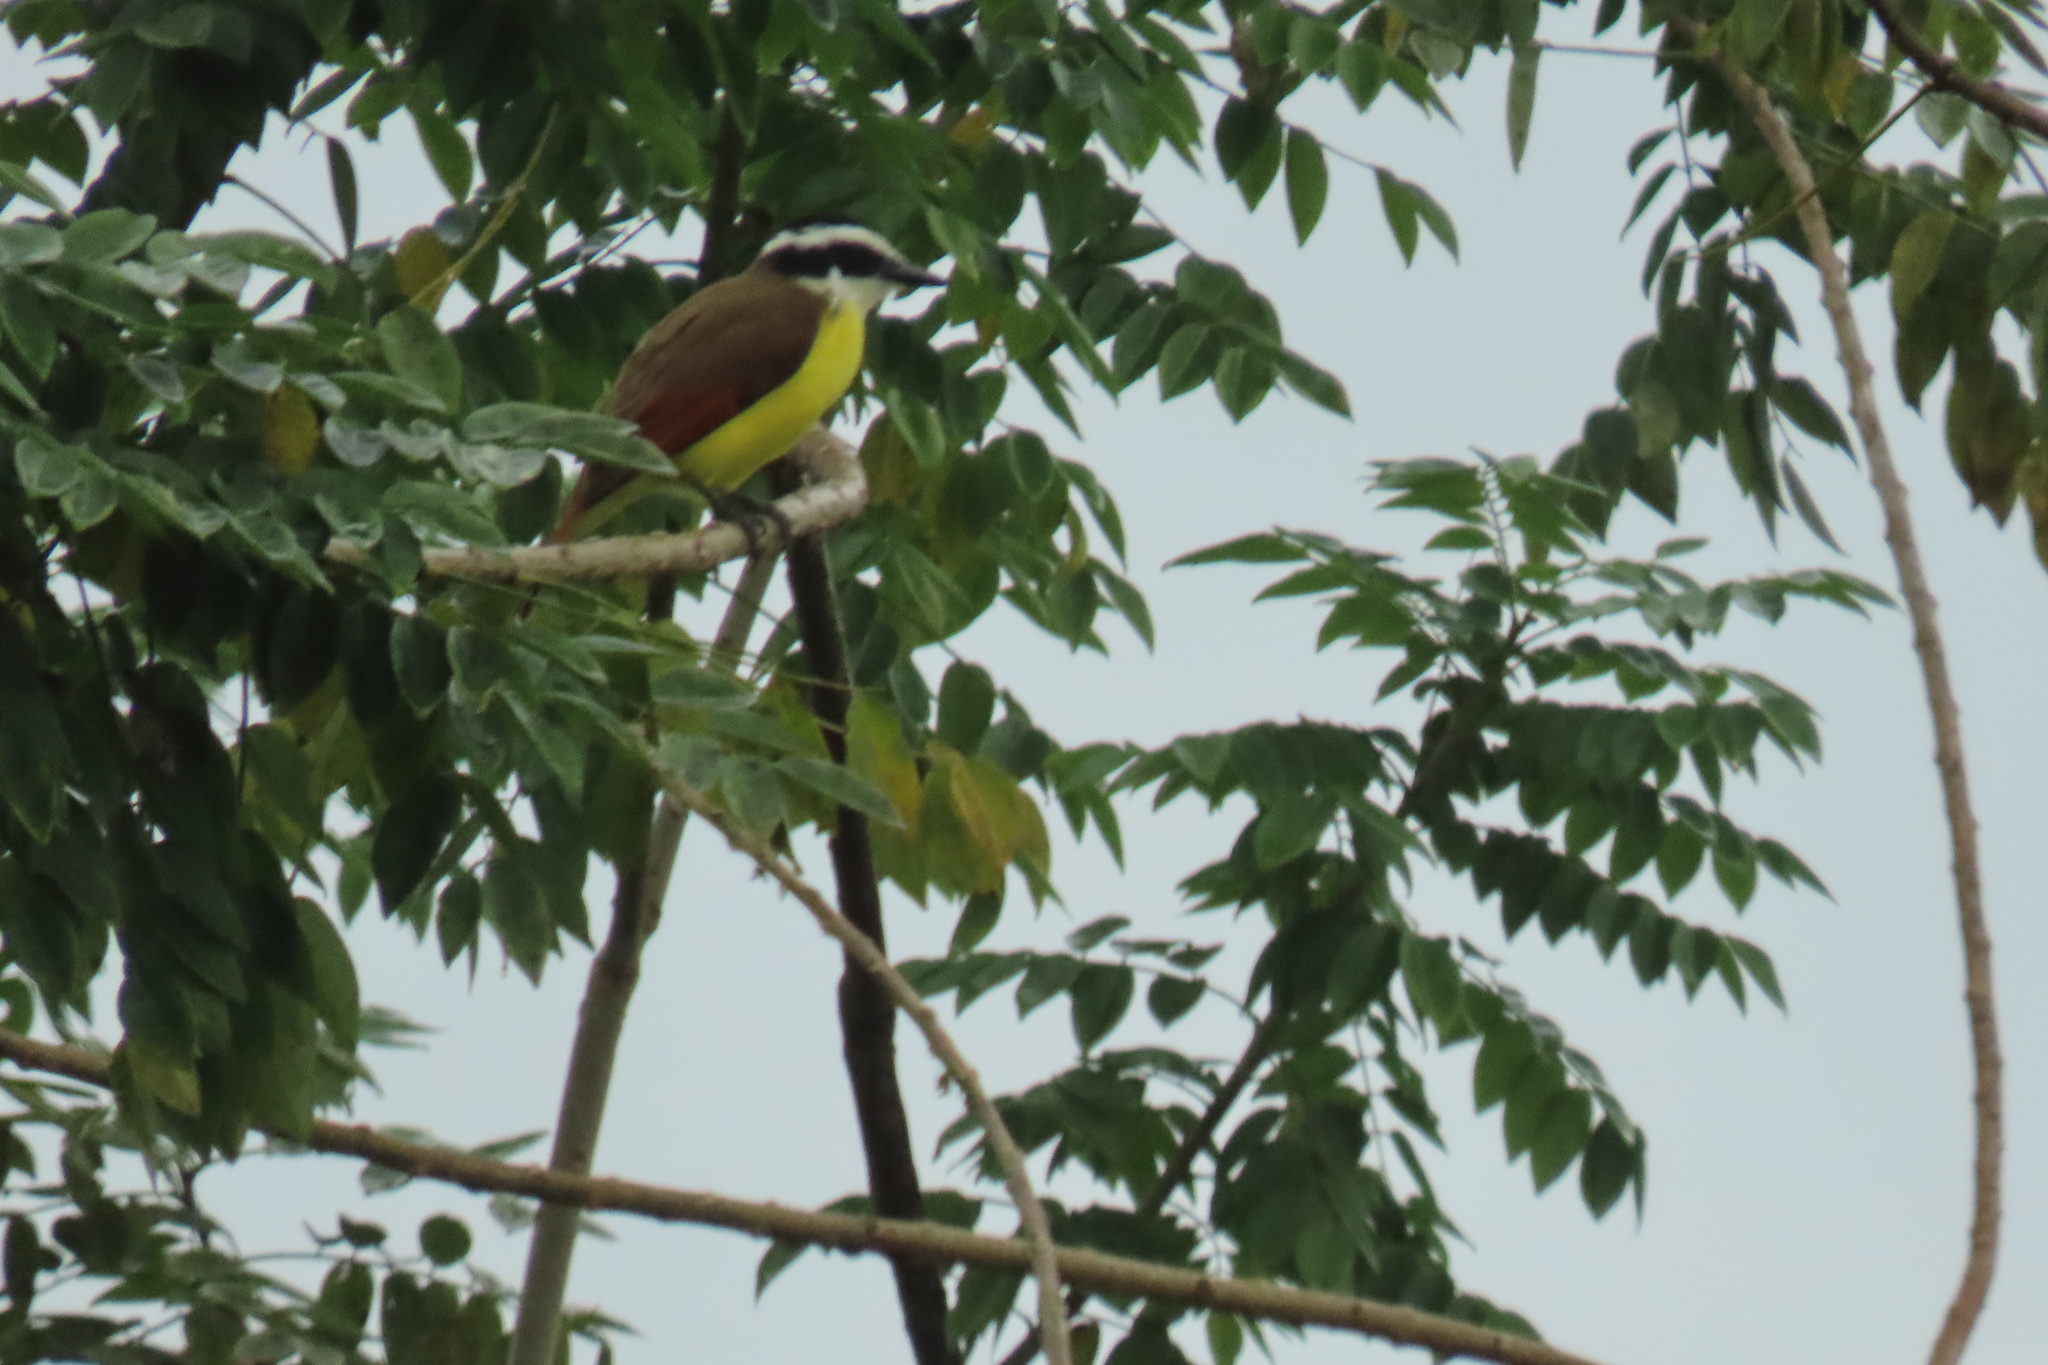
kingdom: Animalia
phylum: Chordata
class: Aves
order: Passeriformes
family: Tyrannidae
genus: Pitangus
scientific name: Pitangus sulphuratus
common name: Great kiskadee
